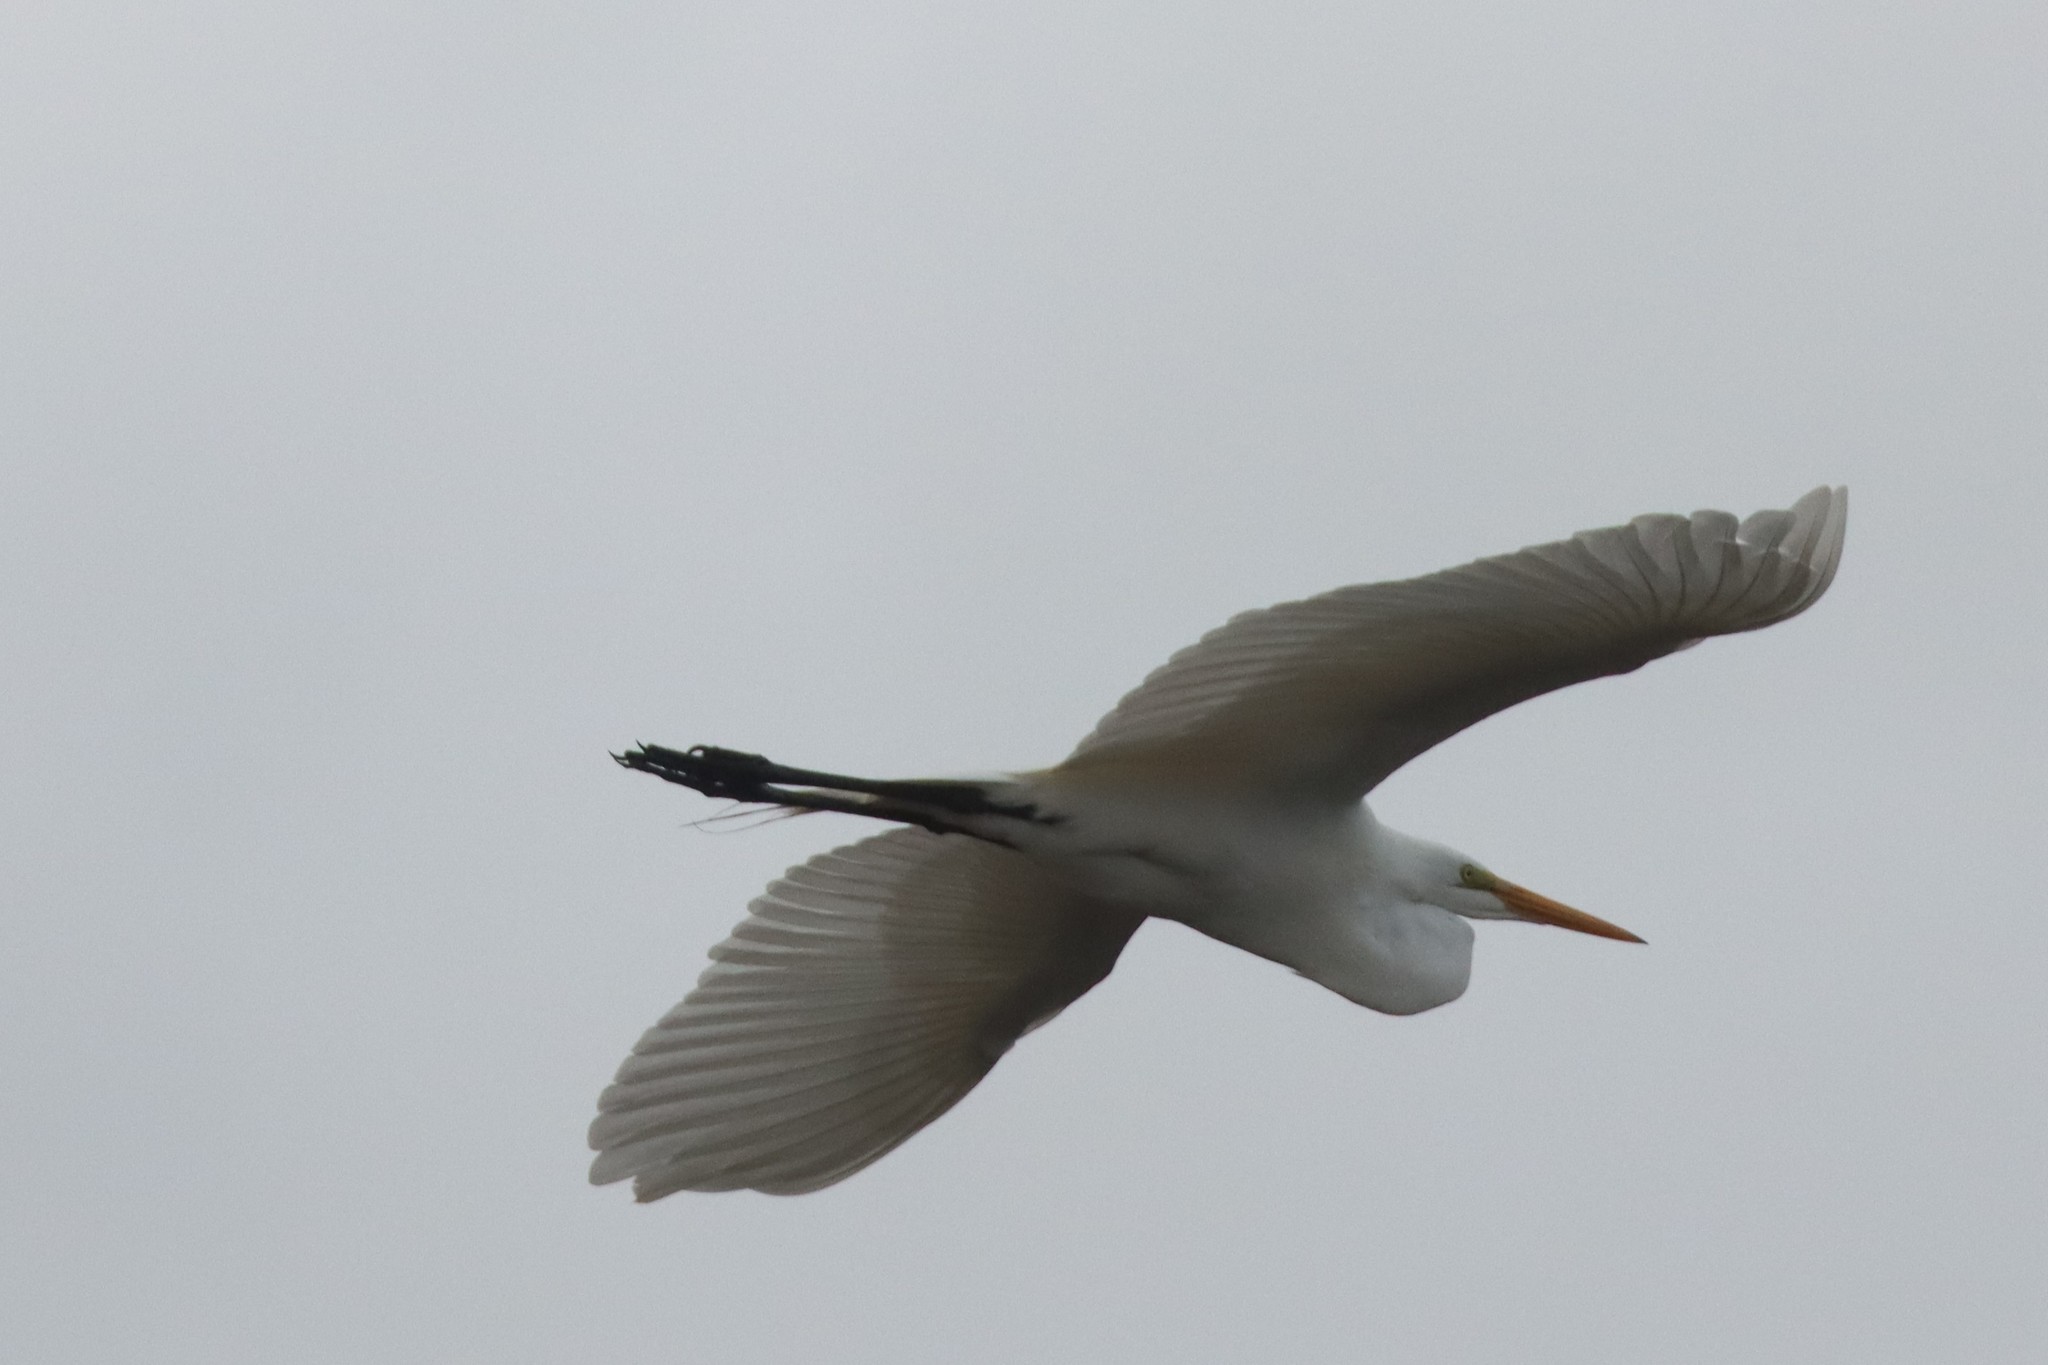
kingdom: Animalia
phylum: Chordata
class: Aves
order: Pelecaniformes
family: Ardeidae
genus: Ardea
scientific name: Ardea alba
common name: Great egret
